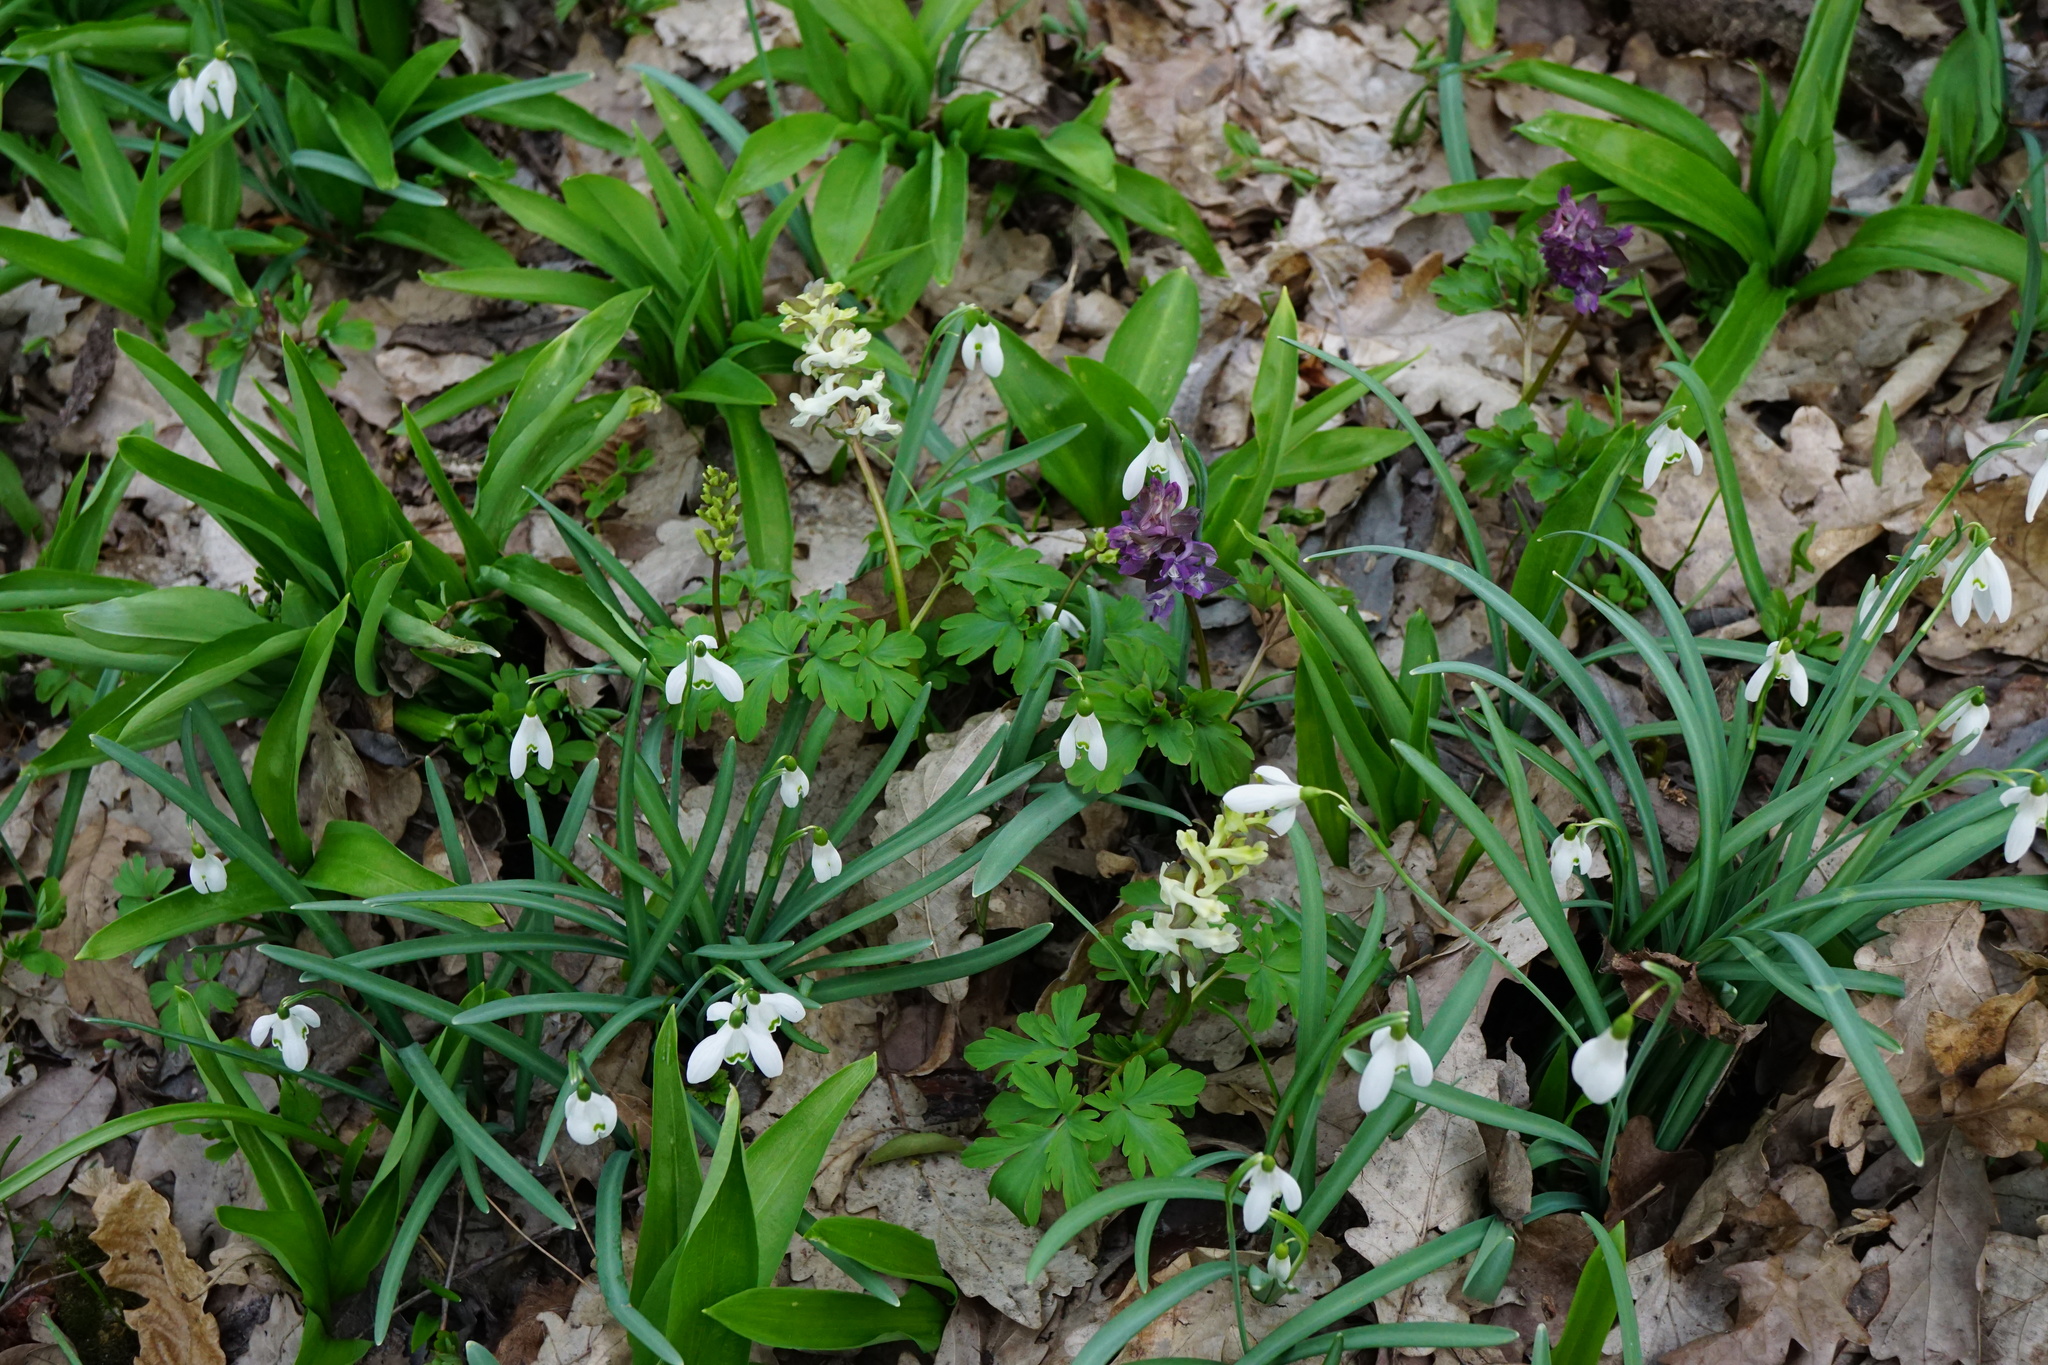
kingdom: Plantae
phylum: Tracheophyta
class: Magnoliopsida
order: Ranunculales
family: Papaveraceae
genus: Corydalis
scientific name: Corydalis cava
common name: Hollowroot
